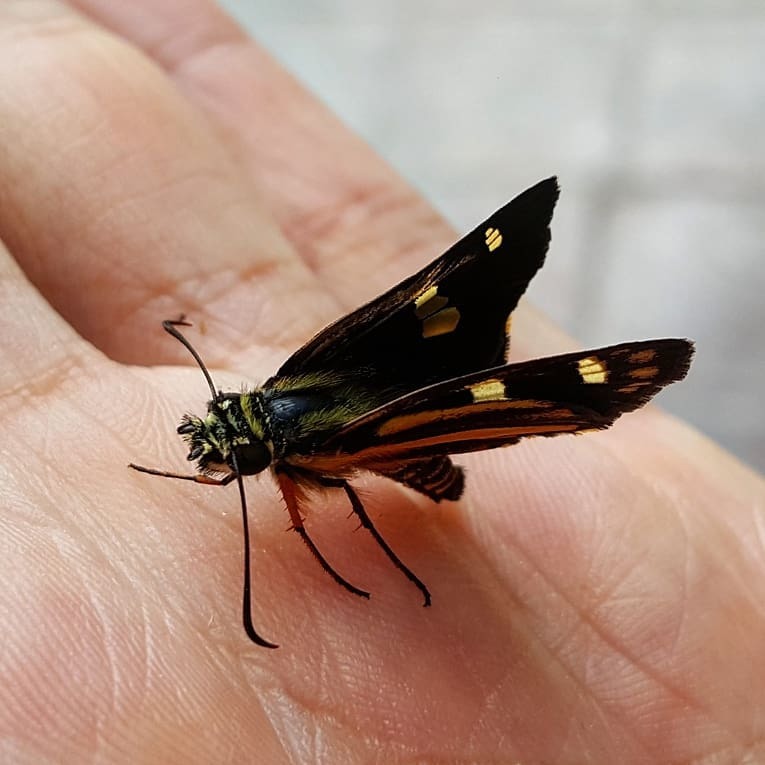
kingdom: Animalia
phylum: Arthropoda
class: Insecta
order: Lepidoptera
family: Hesperiidae
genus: Dalla
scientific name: Dalla ramirezi
